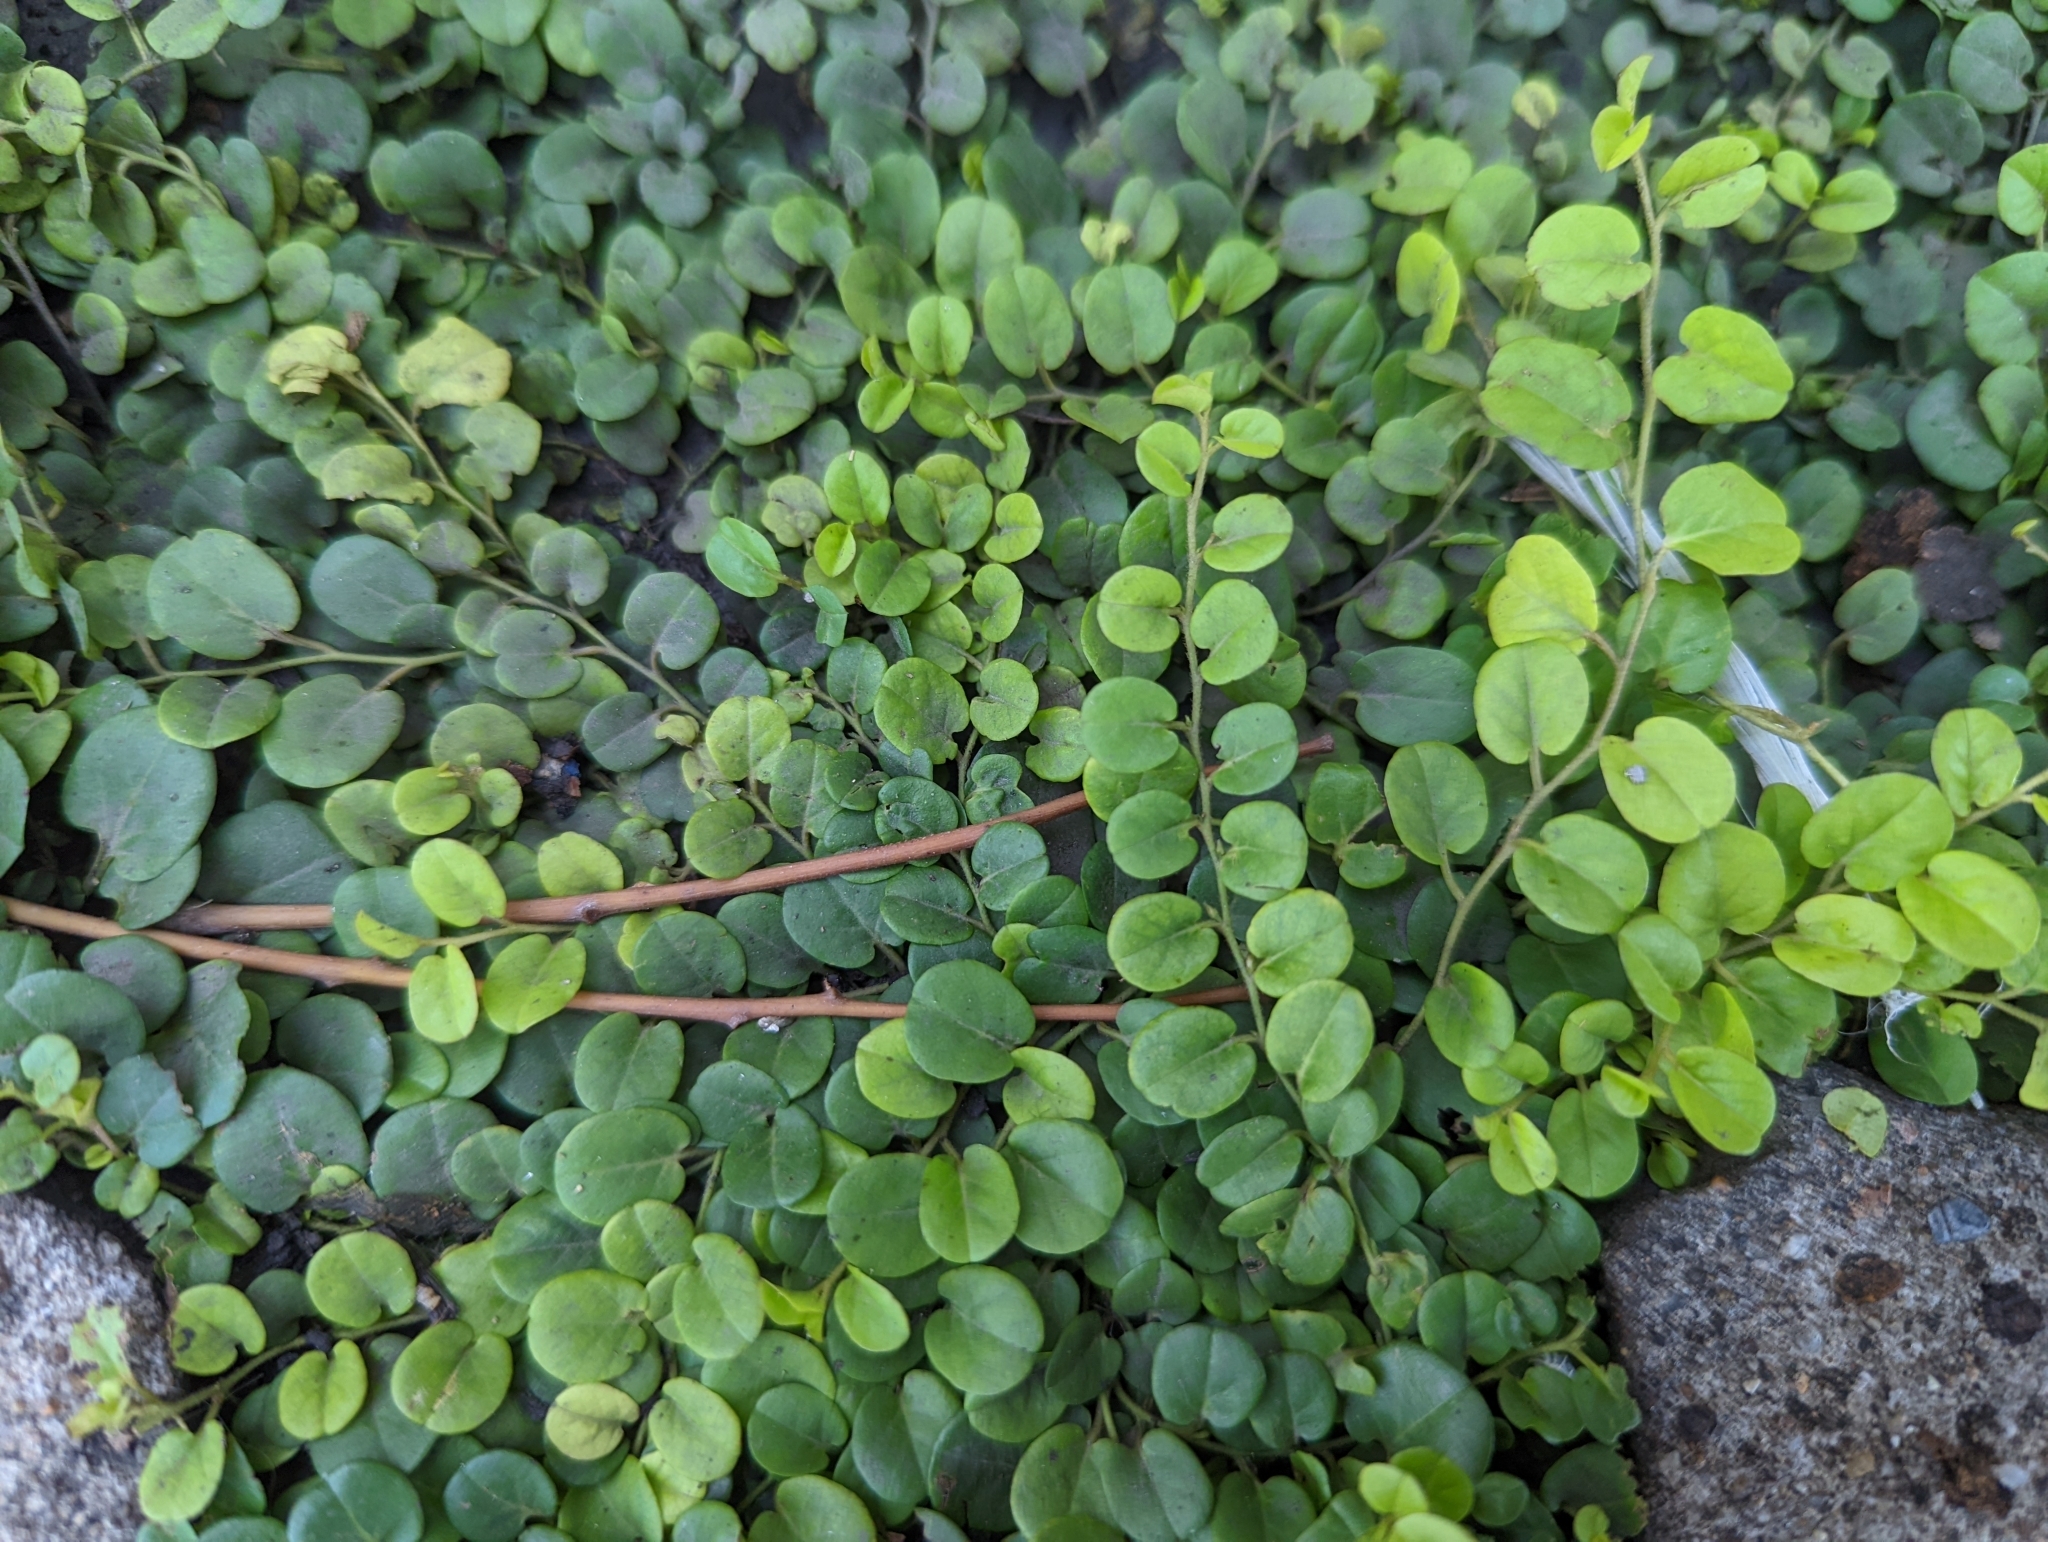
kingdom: Plantae
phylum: Tracheophyta
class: Magnoliopsida
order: Solanales
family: Convolvulaceae
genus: Evolvulus
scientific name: Evolvulus nummularius
